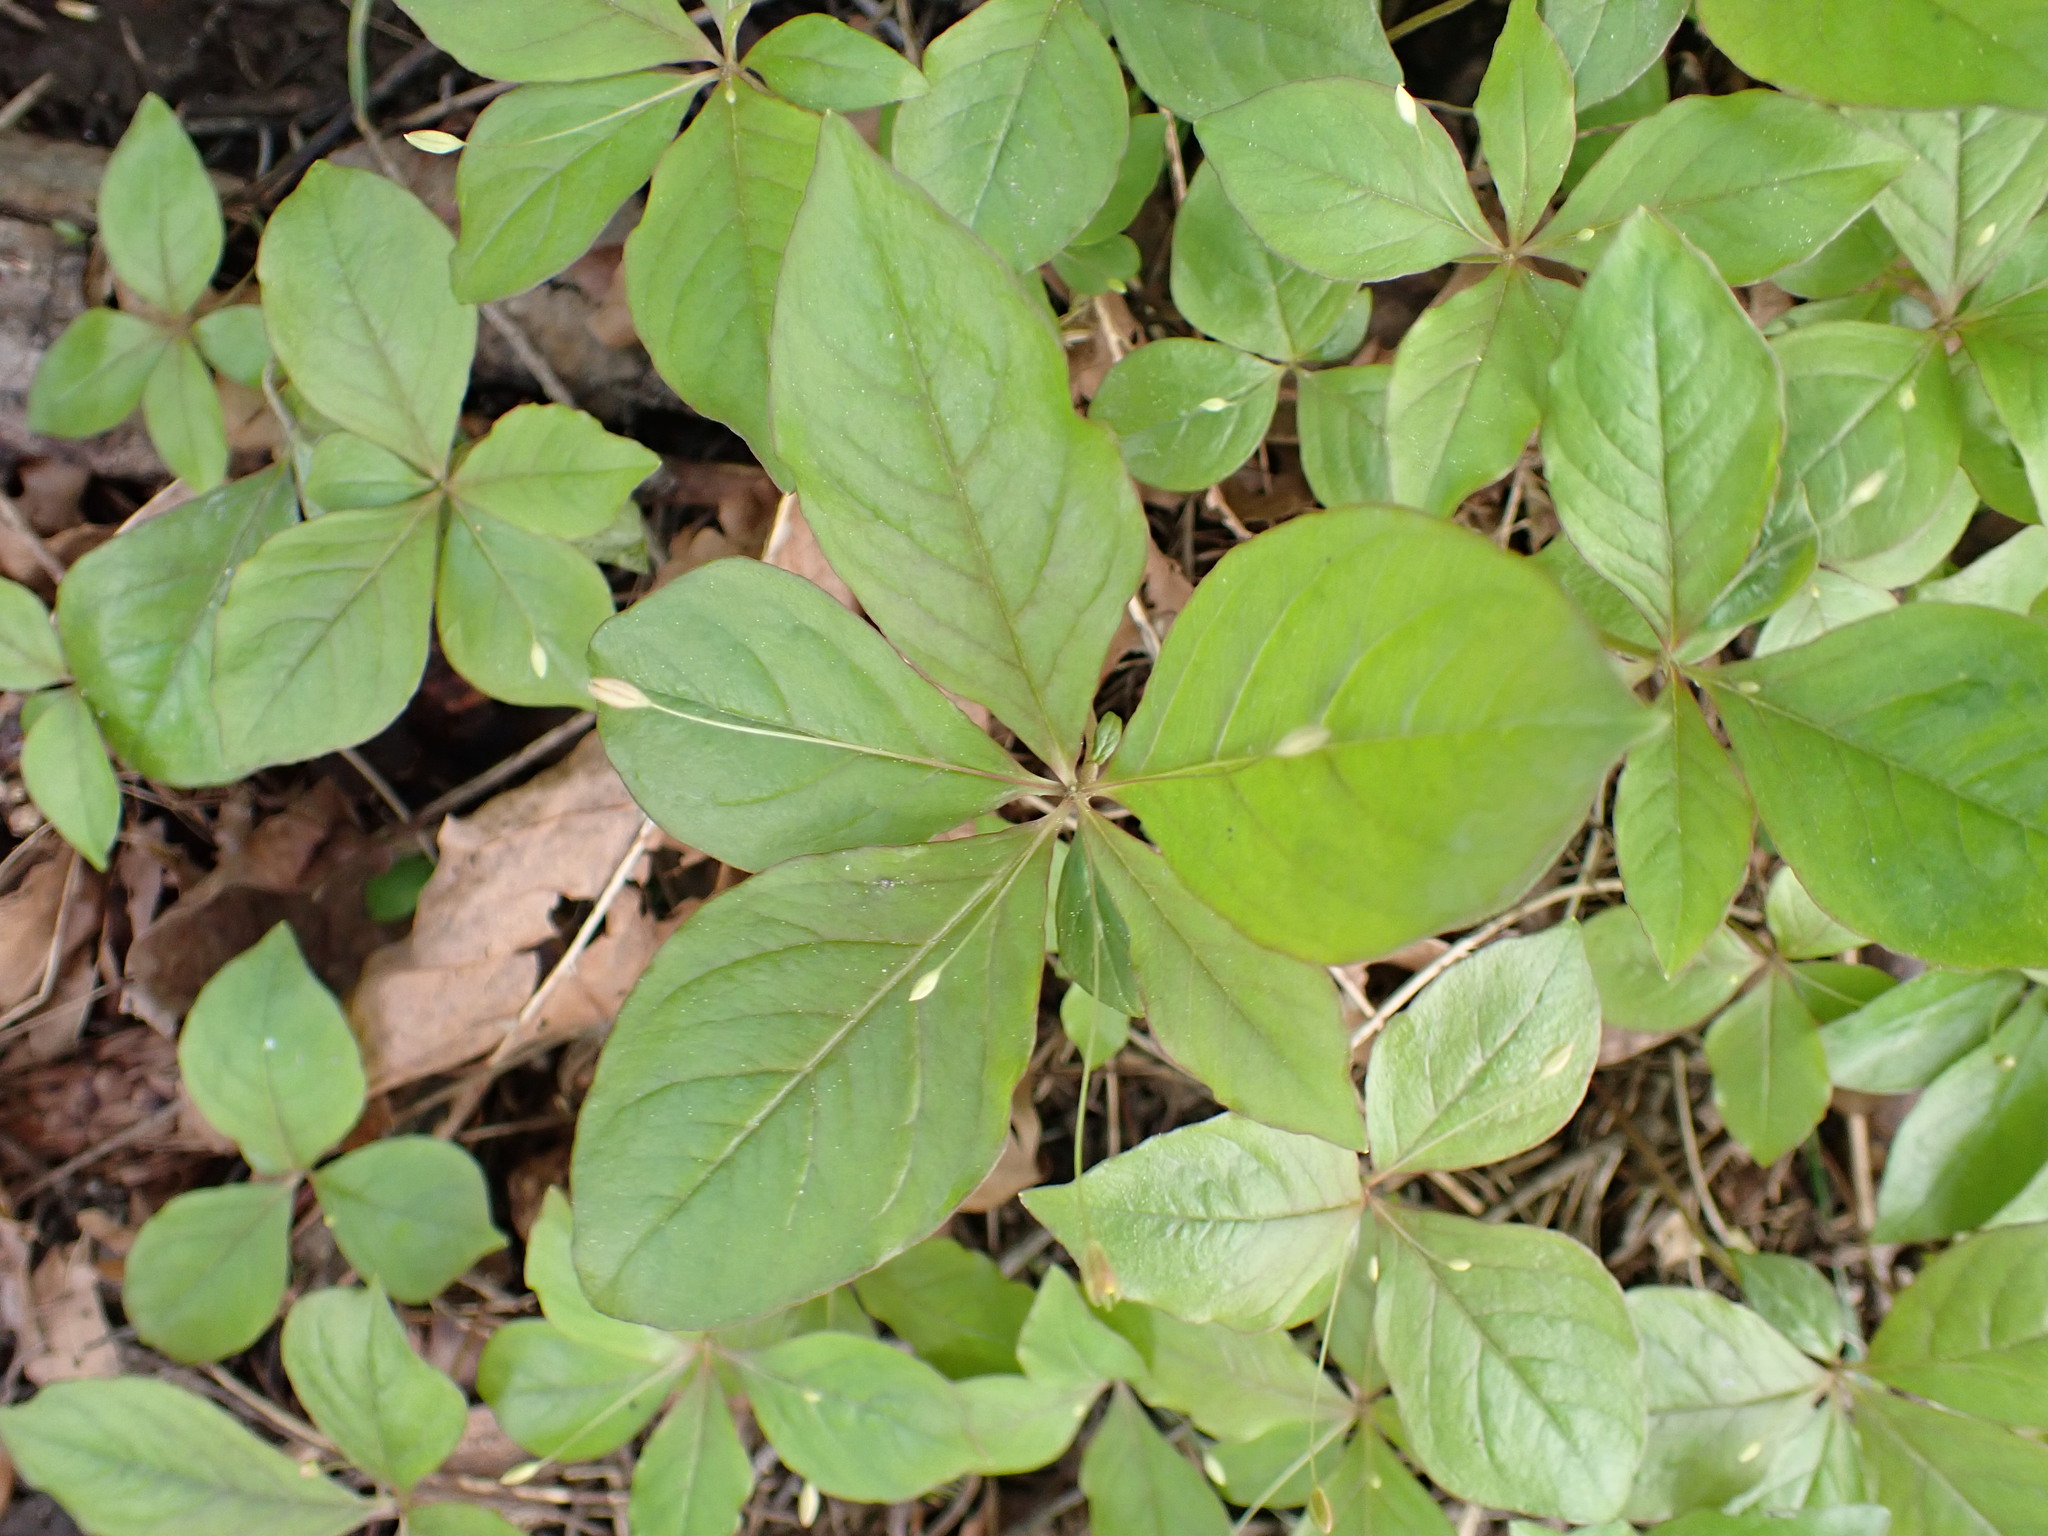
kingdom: Plantae
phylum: Tracheophyta
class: Magnoliopsida
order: Ericales
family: Primulaceae
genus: Lysimachia
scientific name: Lysimachia latifolia
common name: Pacific starflower
